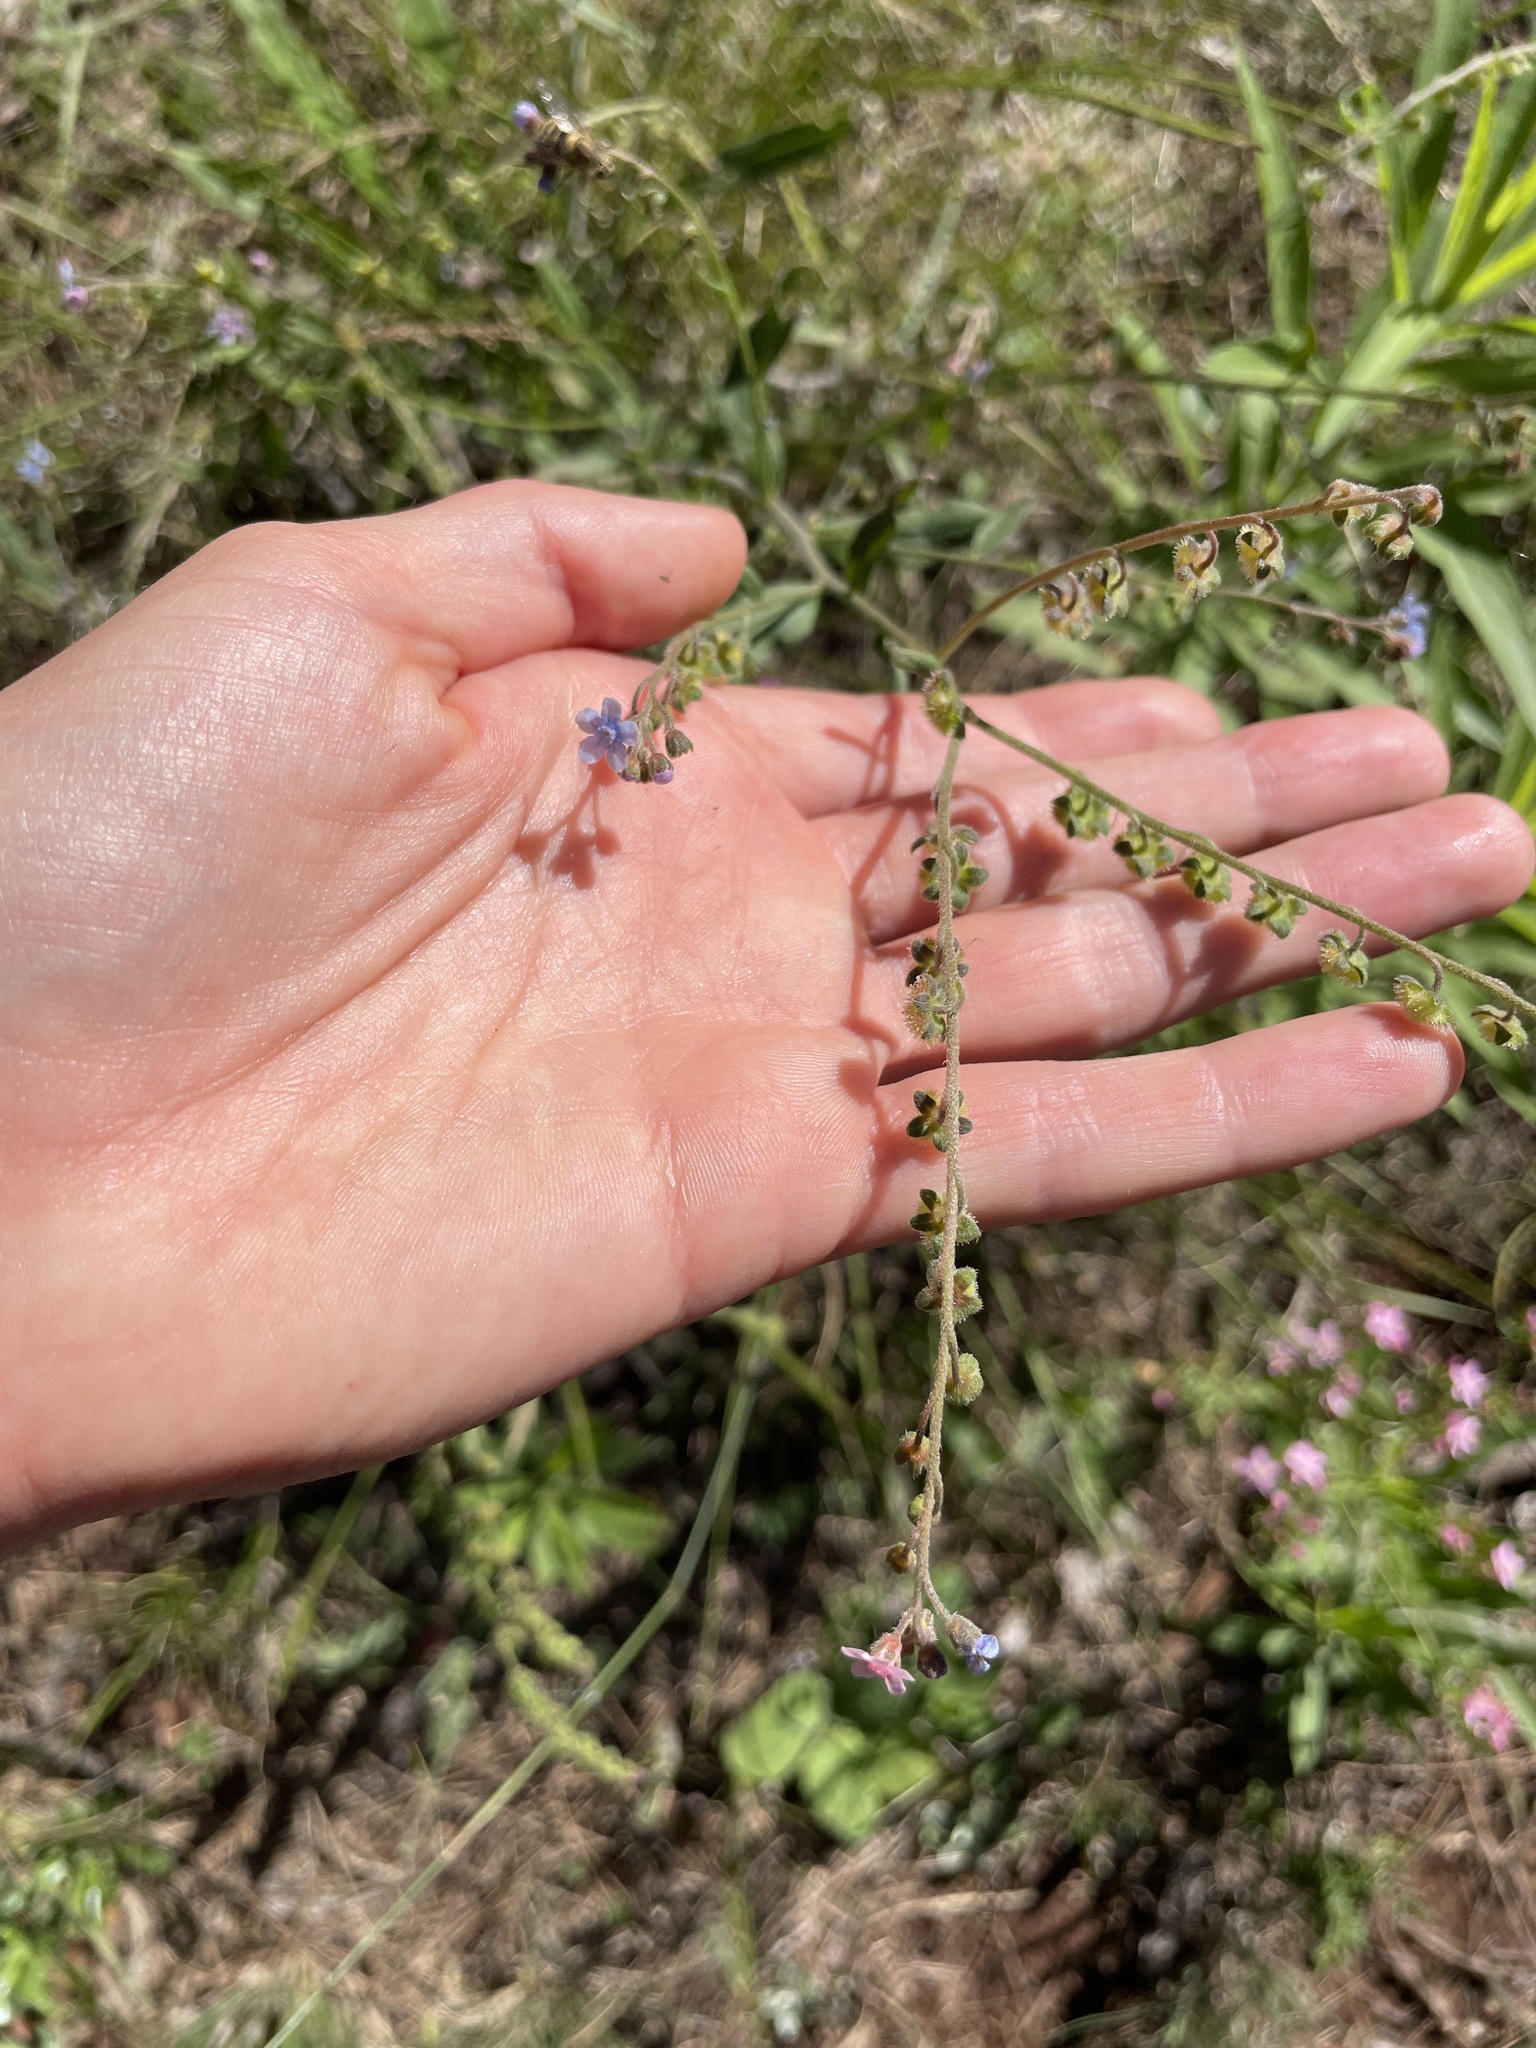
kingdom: Plantae
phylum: Tracheophyta
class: Magnoliopsida
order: Boraginales
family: Boraginaceae
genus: Cynoglossum
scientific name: Cynoglossum australe
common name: Australian hound's-tongue
